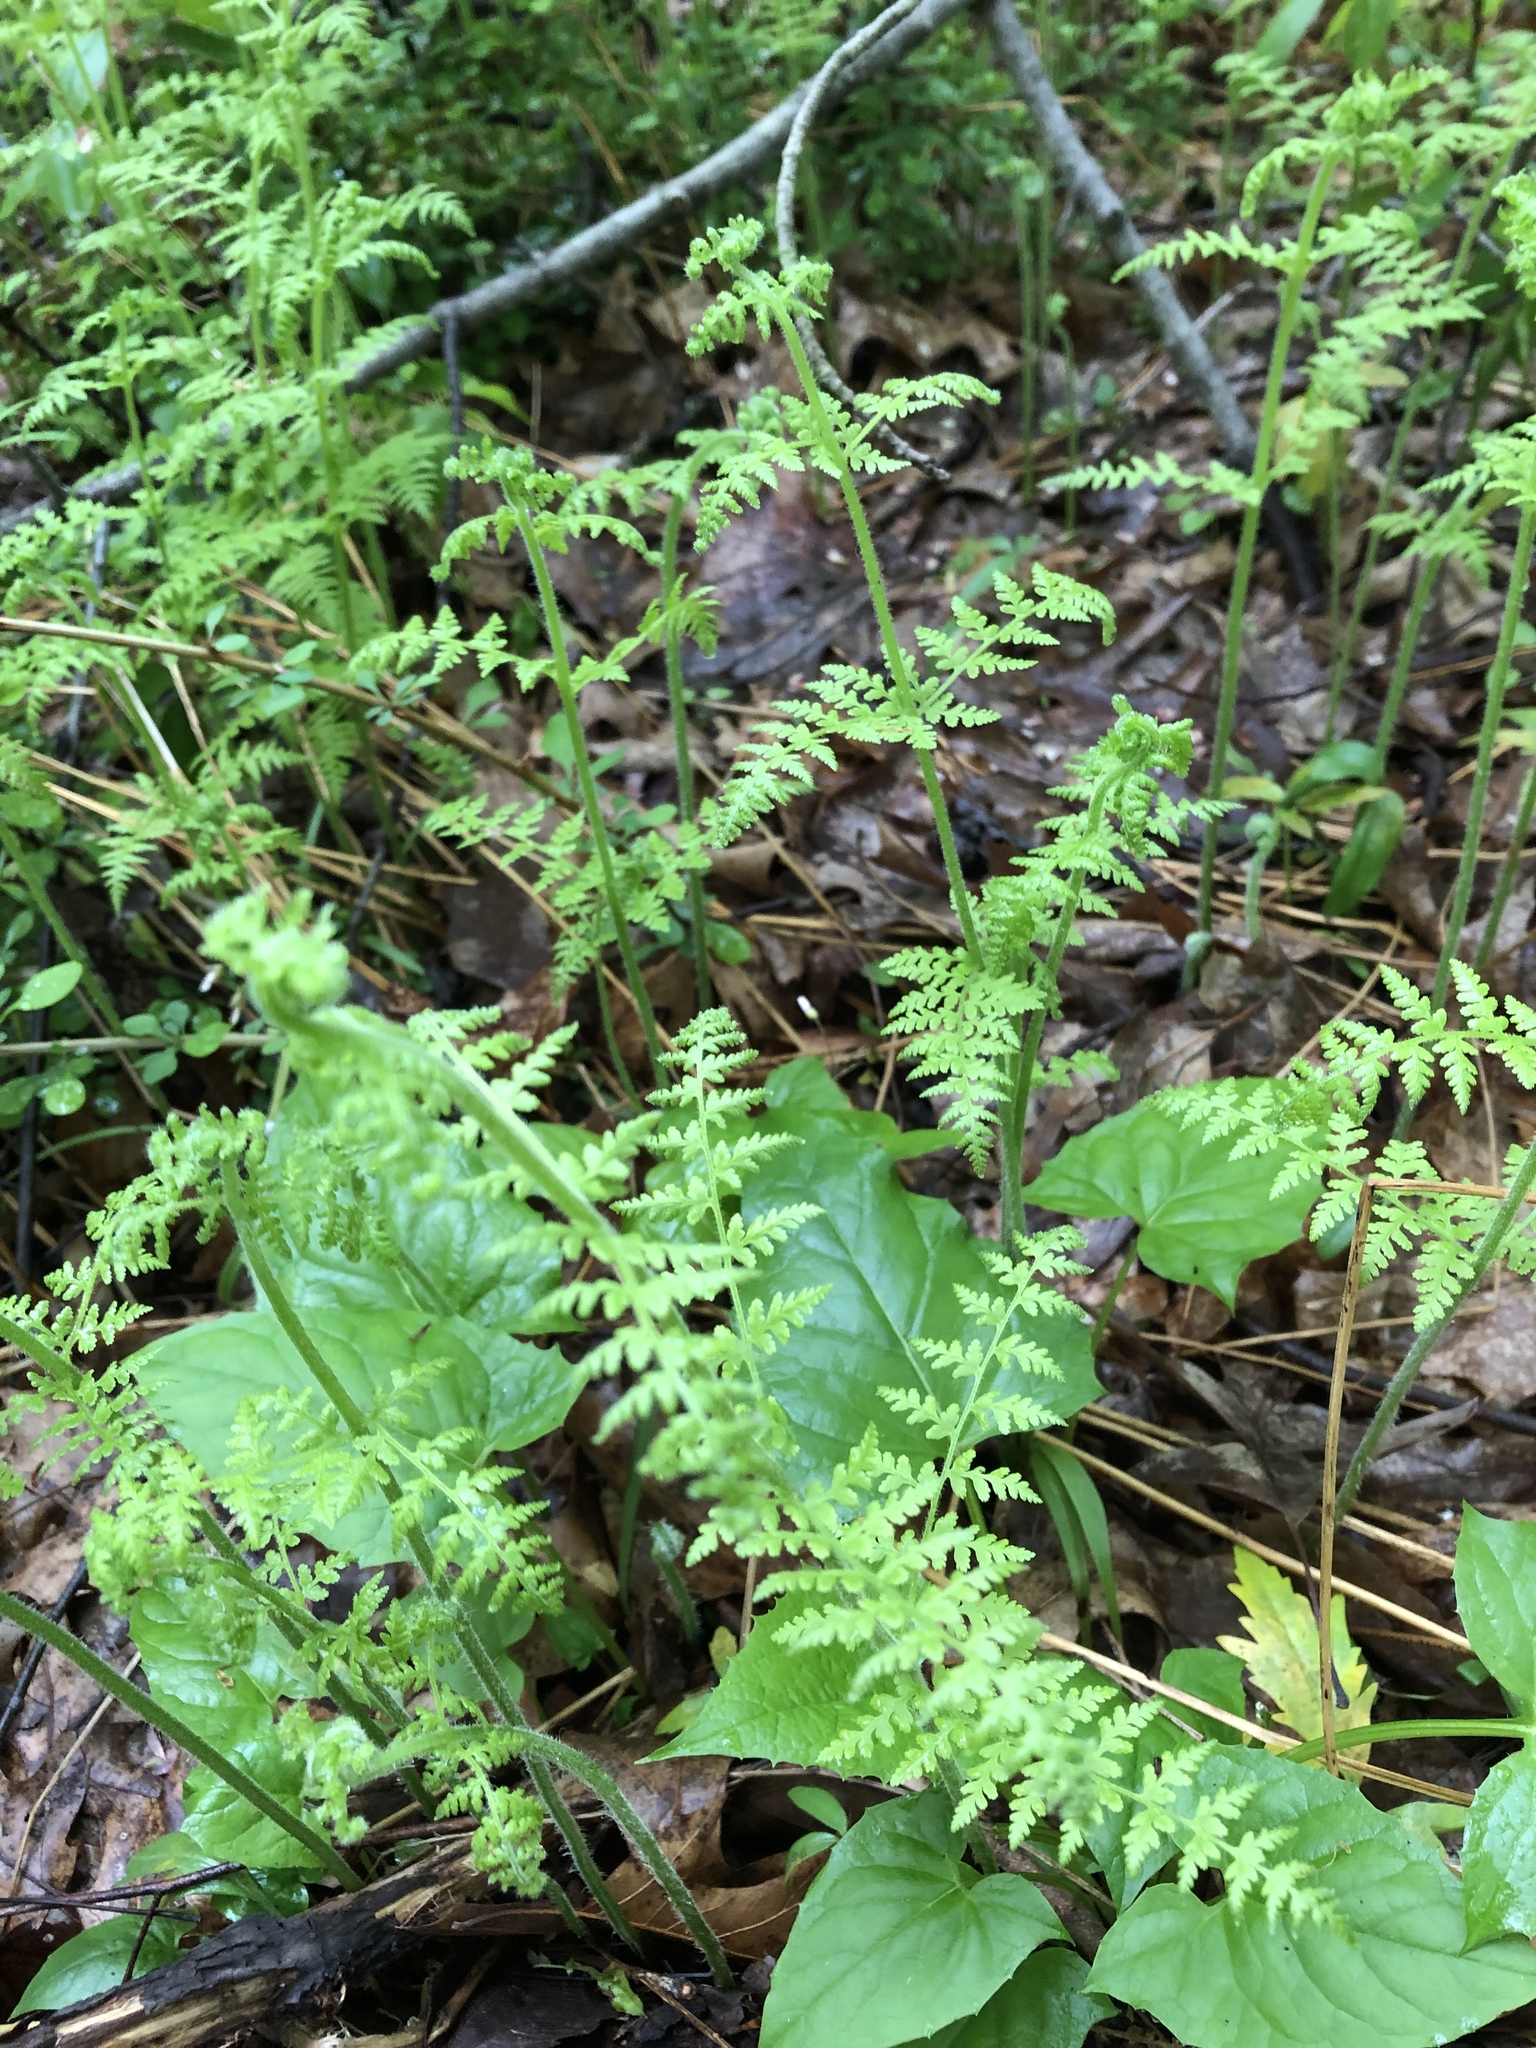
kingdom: Plantae
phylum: Tracheophyta
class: Polypodiopsida
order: Polypodiales
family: Dennstaedtiaceae
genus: Sitobolium
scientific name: Sitobolium punctilobum
